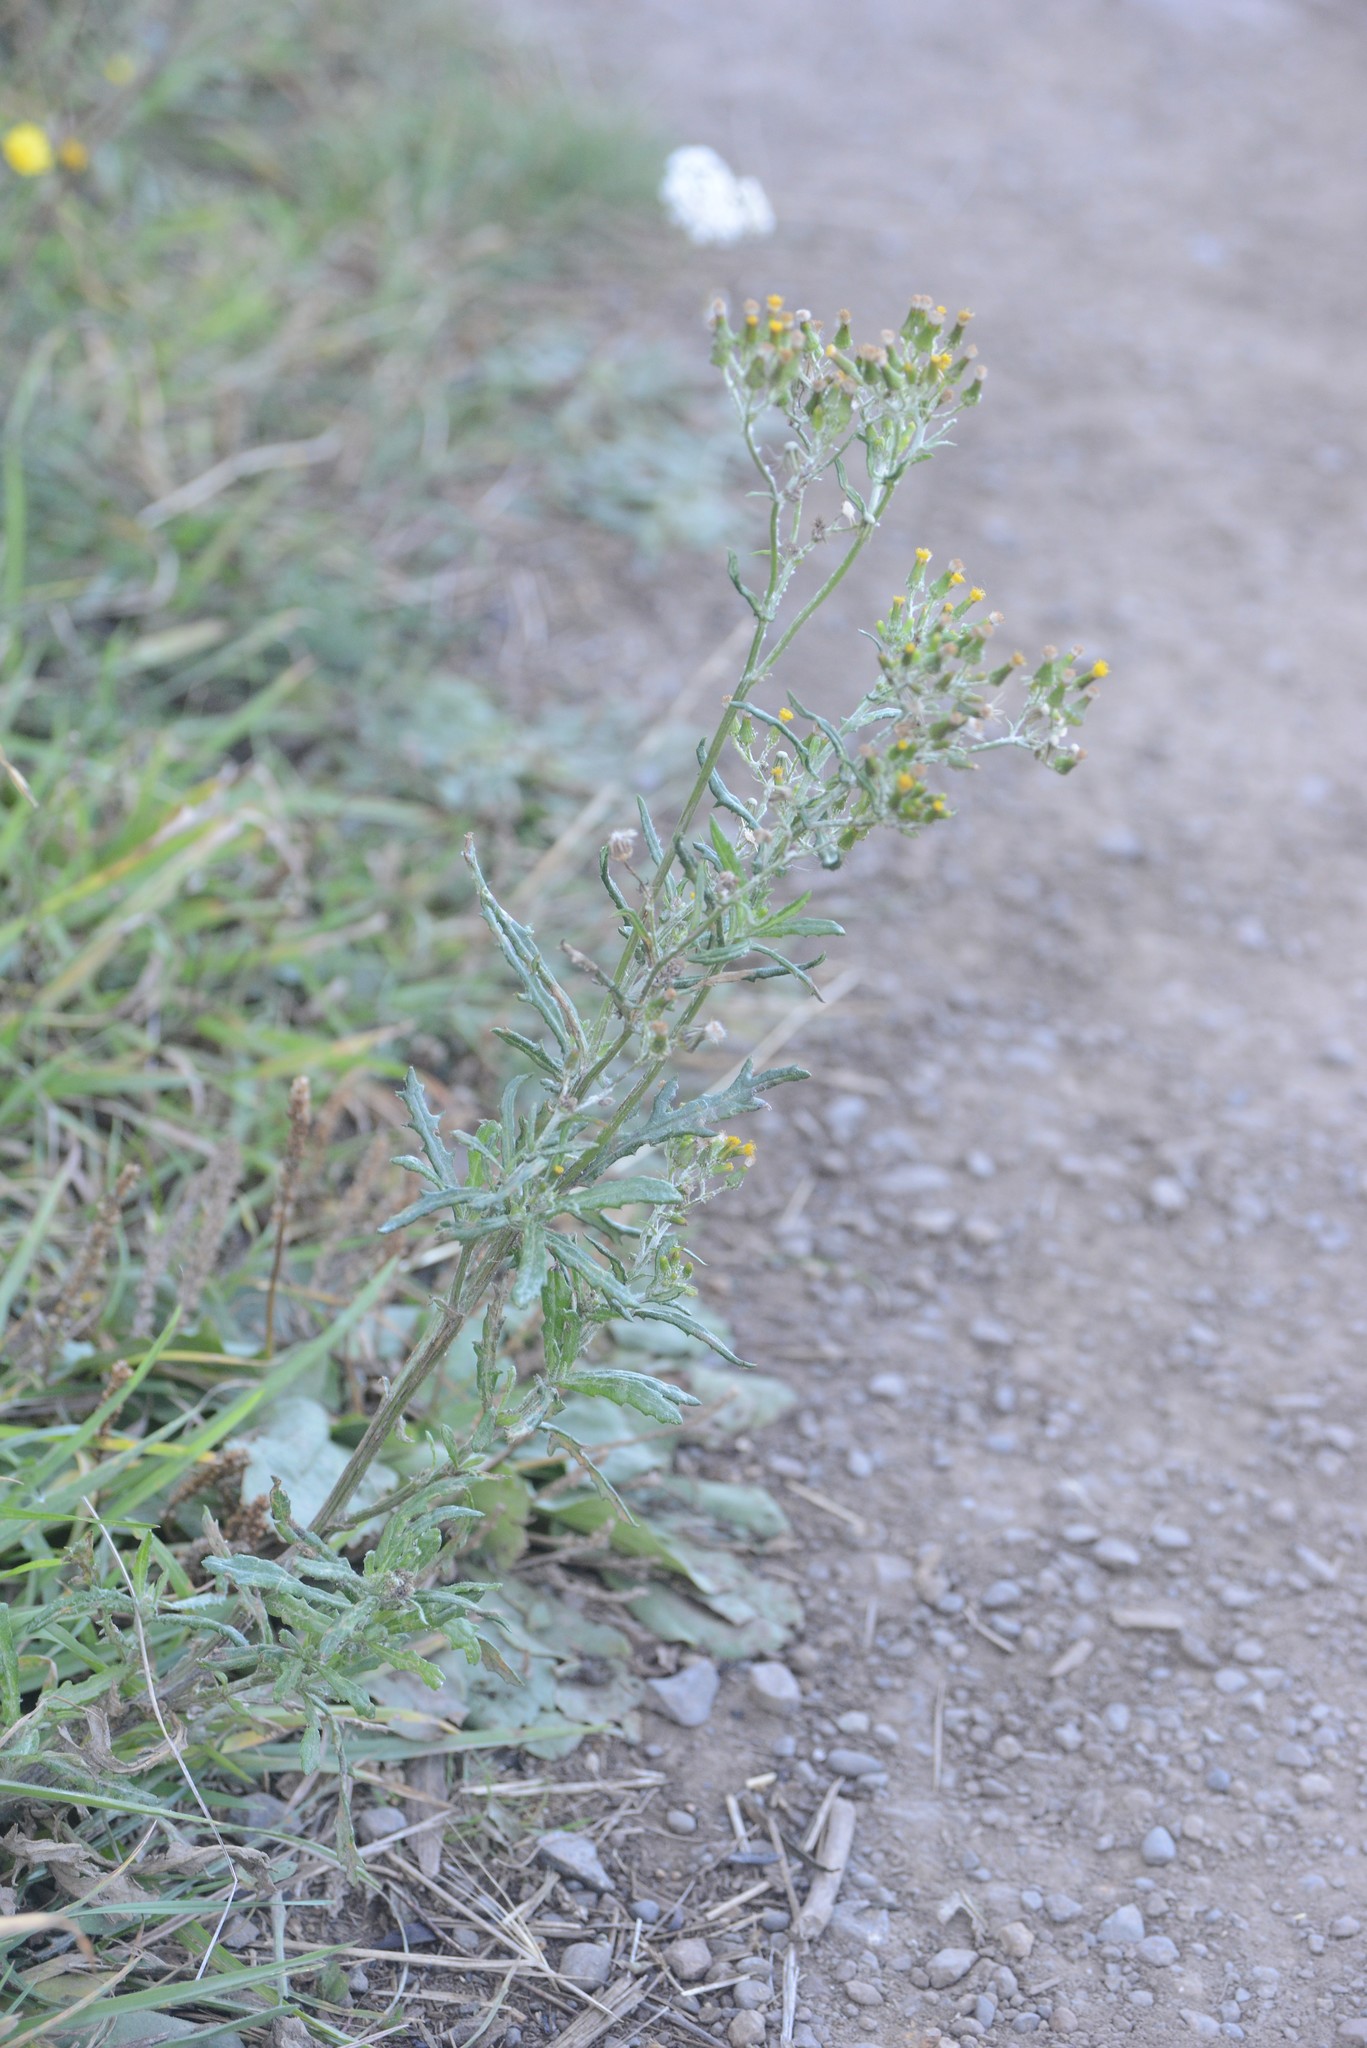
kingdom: Plantae
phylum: Tracheophyta
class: Magnoliopsida
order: Asterales
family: Asteraceae
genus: Senecio
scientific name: Senecio glomeratus
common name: Cutleaf burnweed
